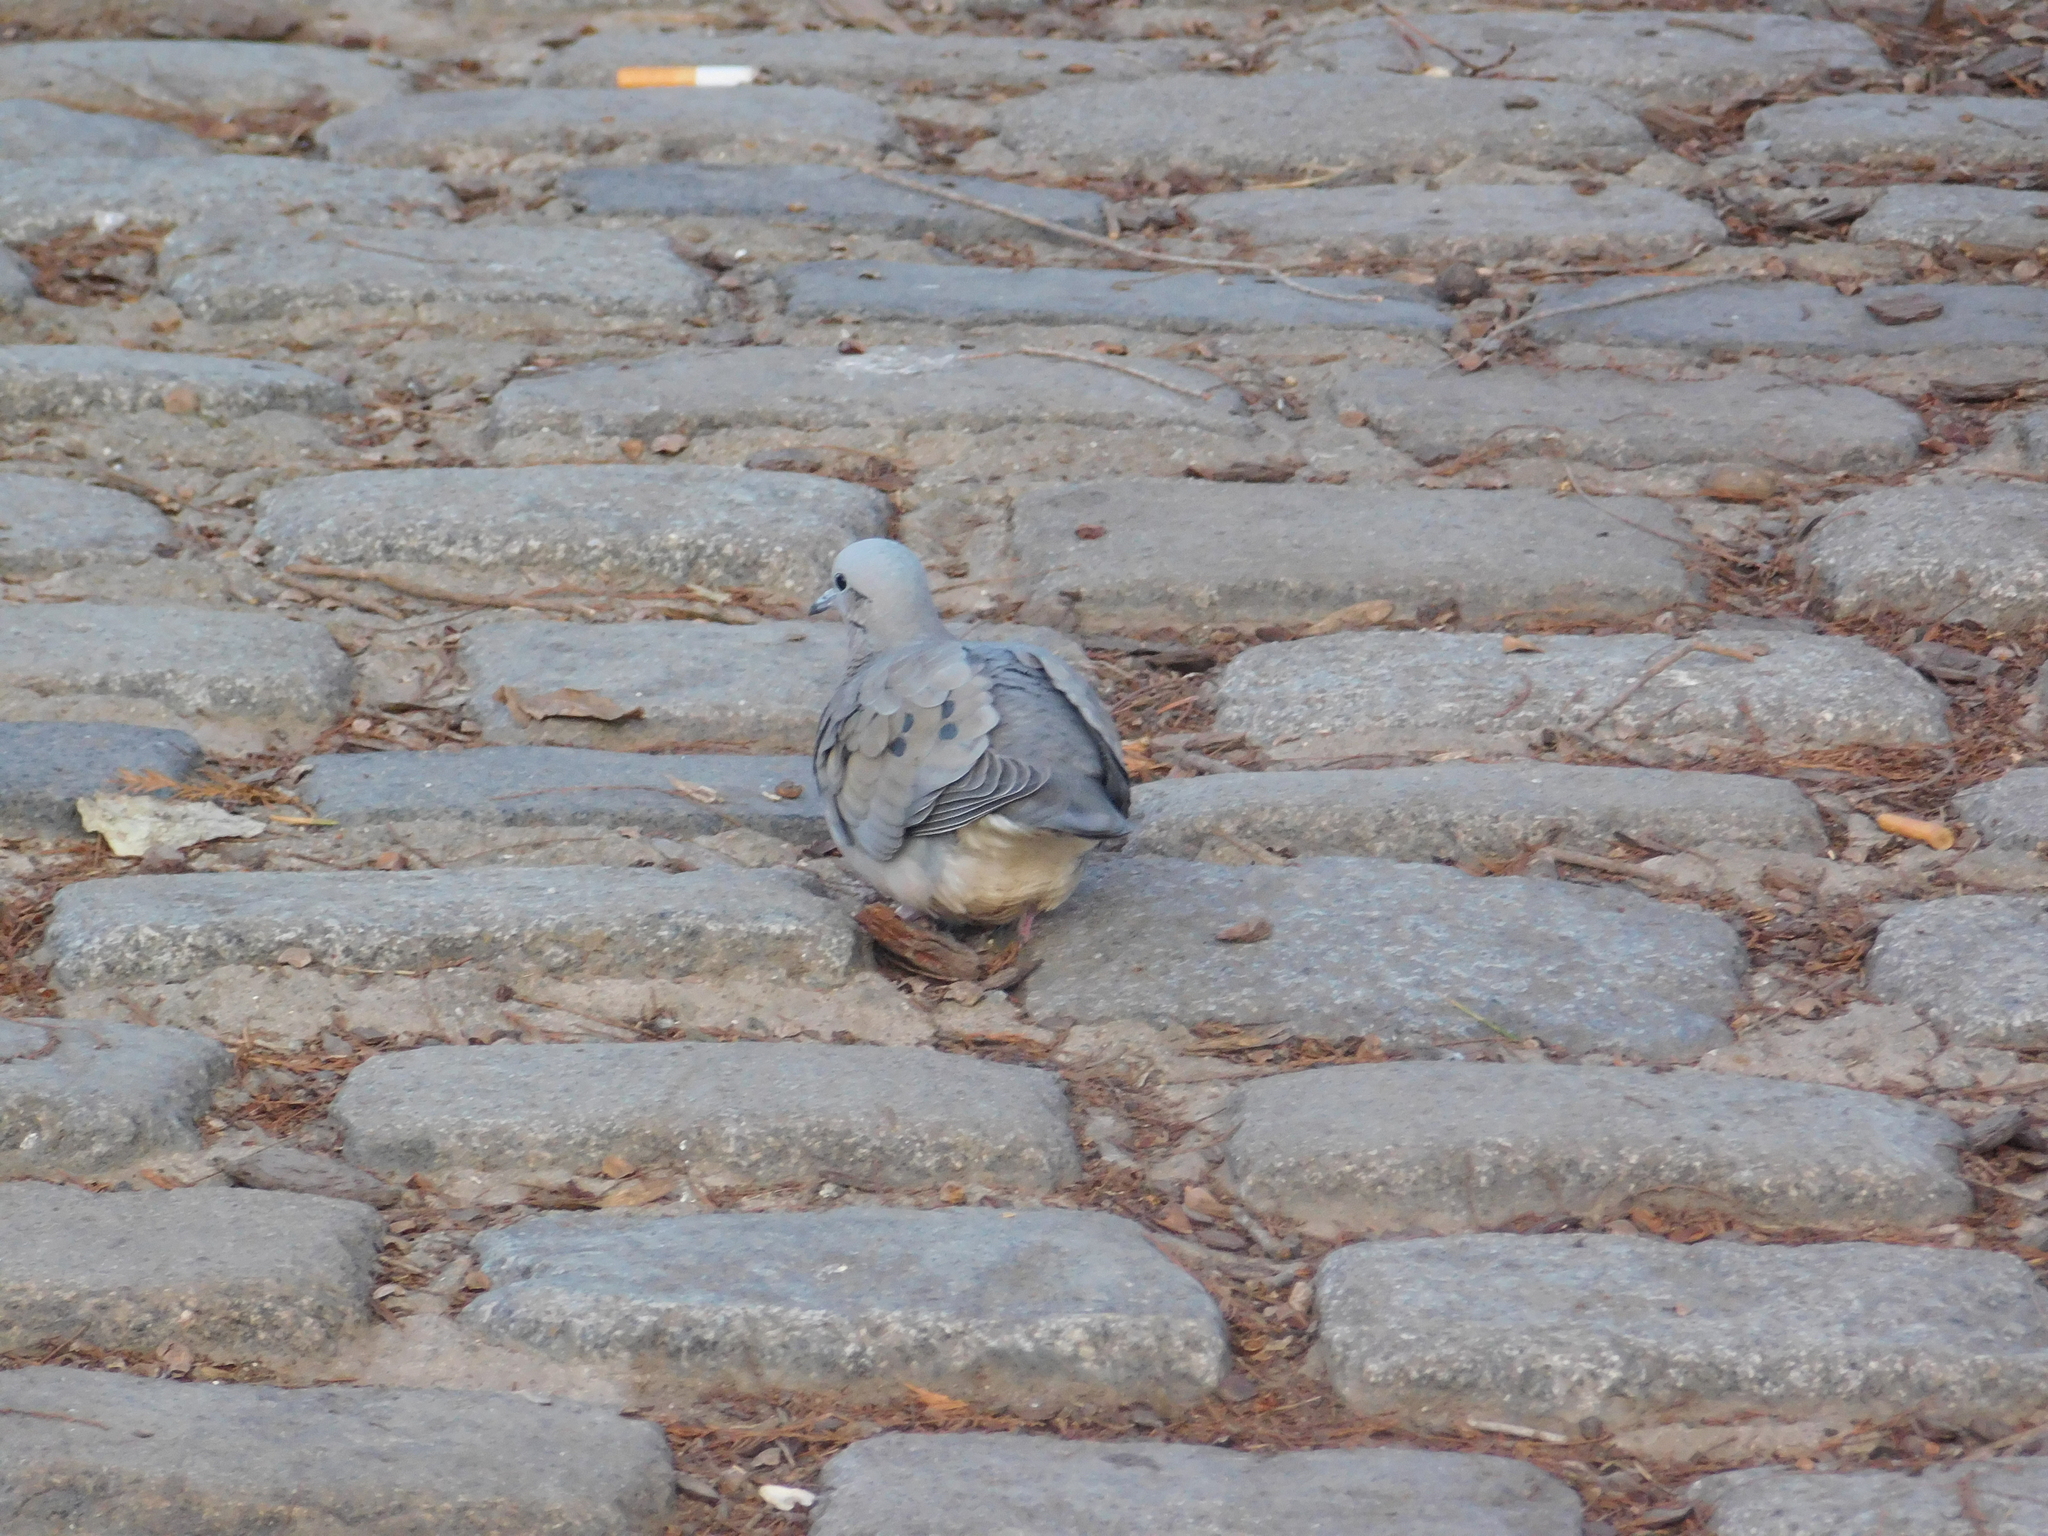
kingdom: Animalia
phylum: Chordata
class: Aves
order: Columbiformes
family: Columbidae
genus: Zenaida
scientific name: Zenaida auriculata
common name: Eared dove
